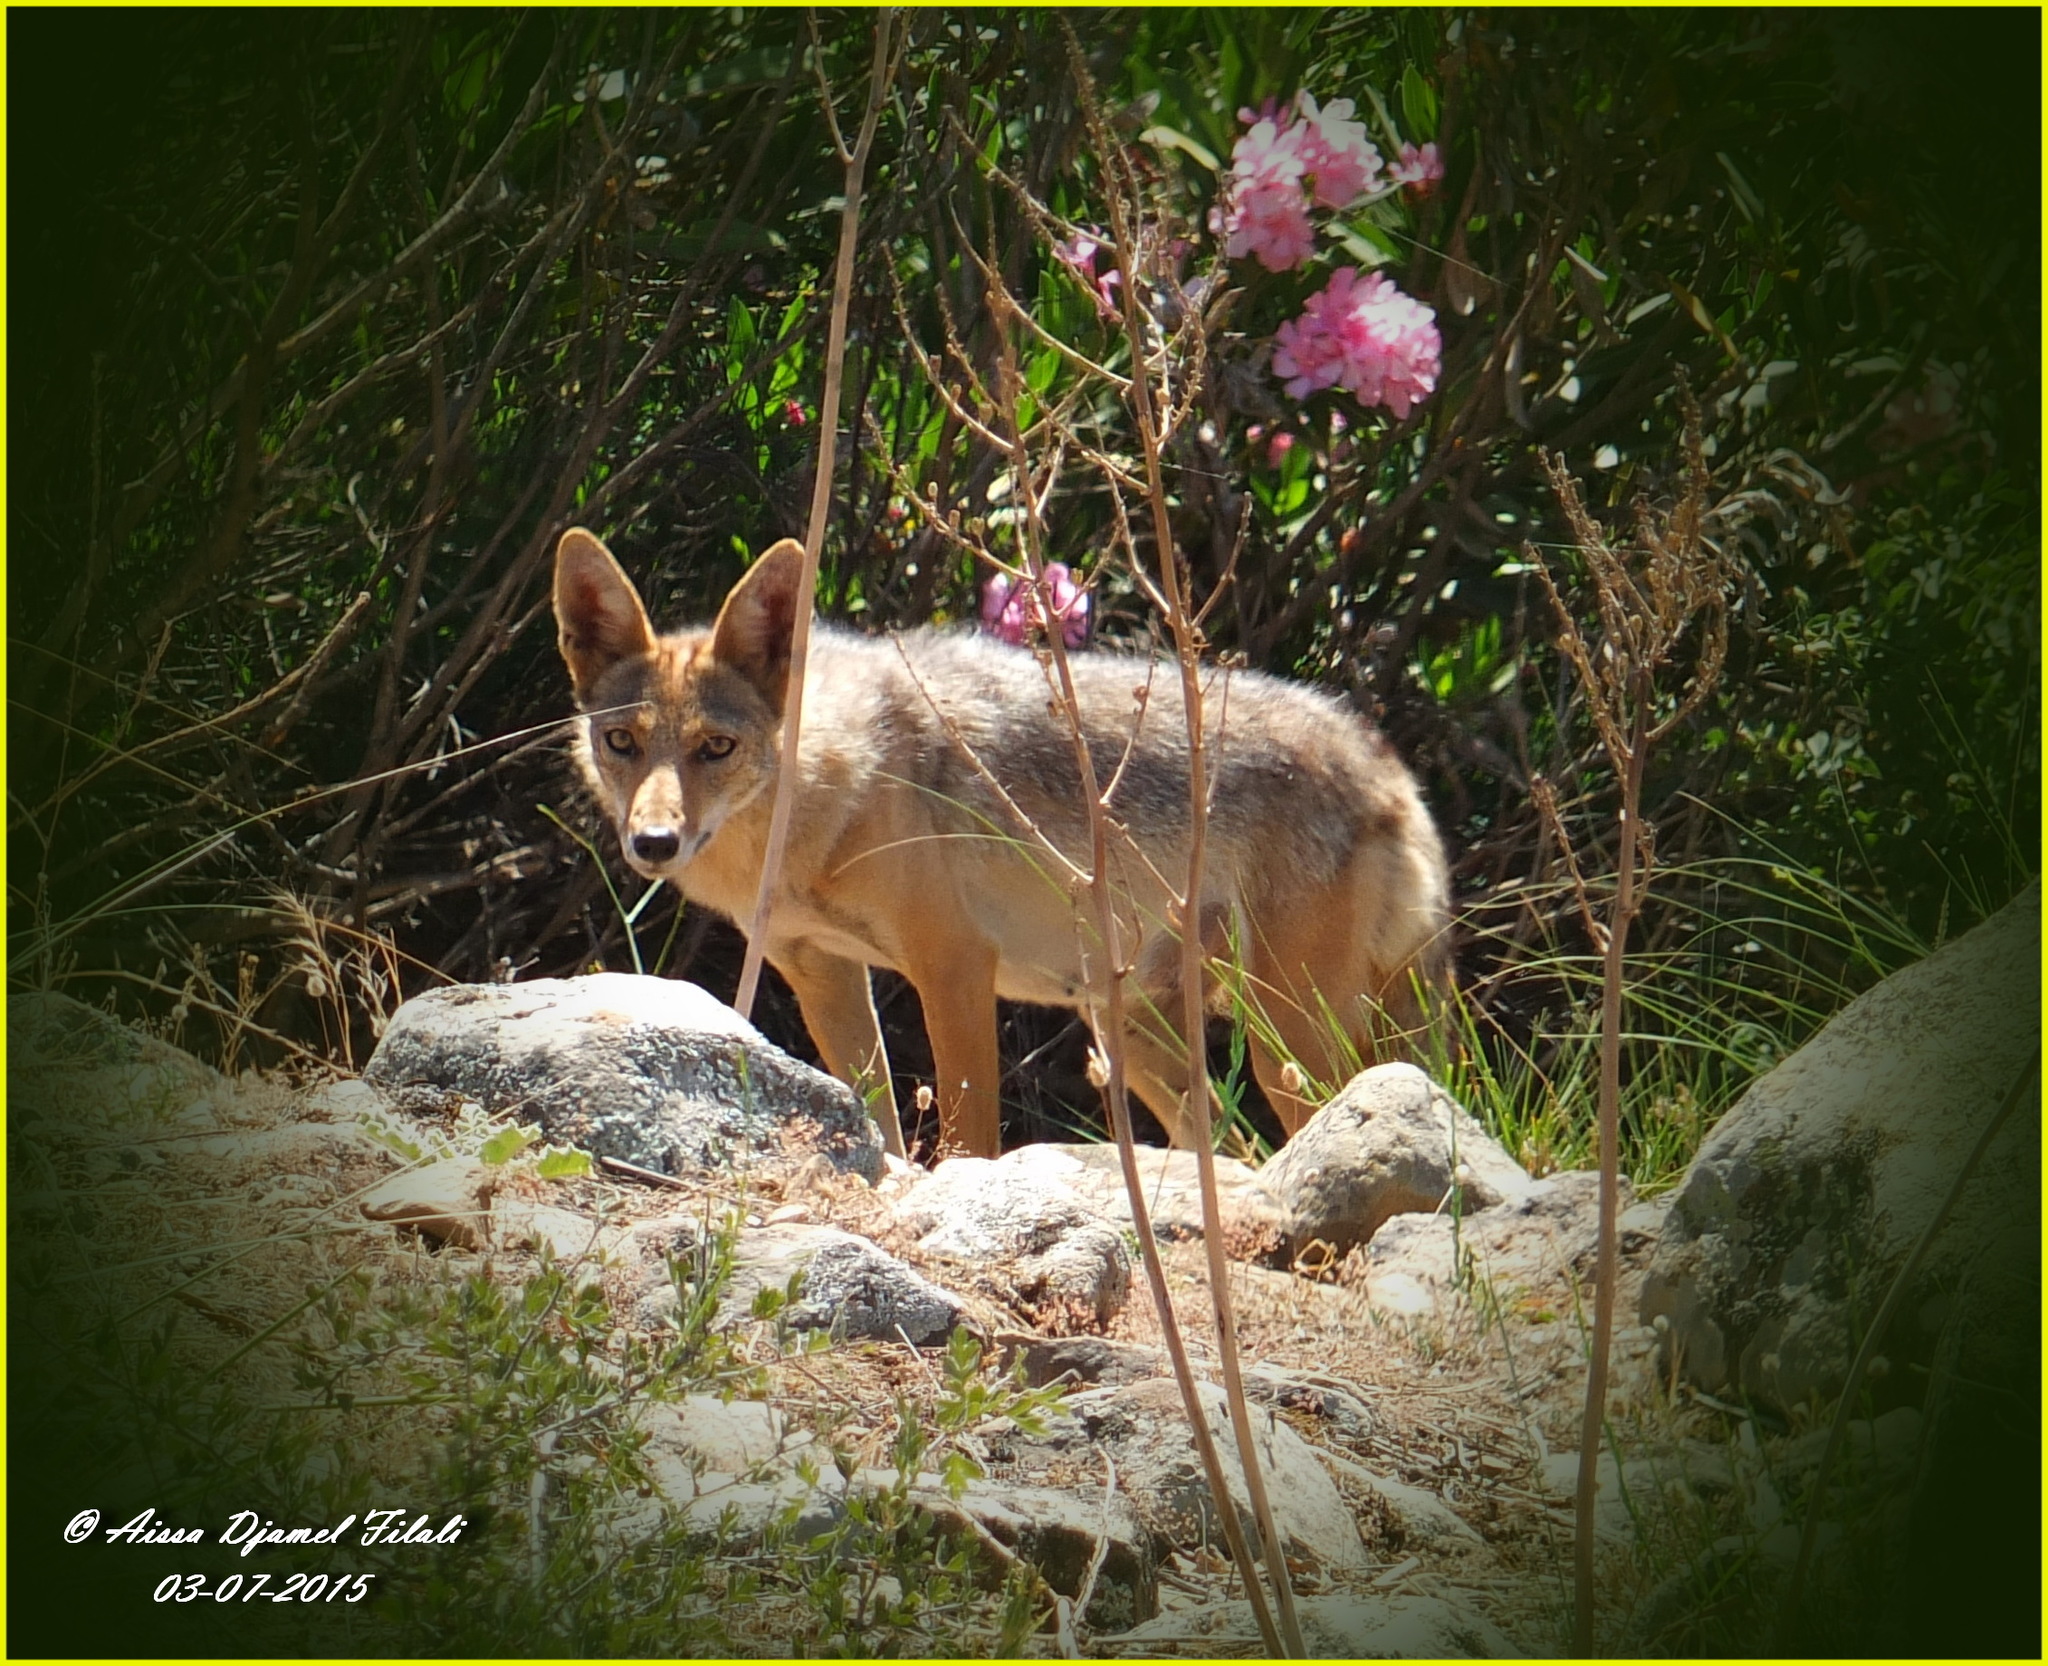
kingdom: Animalia
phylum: Chordata
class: Mammalia
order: Carnivora
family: Canidae
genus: Canis
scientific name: Canis lupaster
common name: African golden wolf
